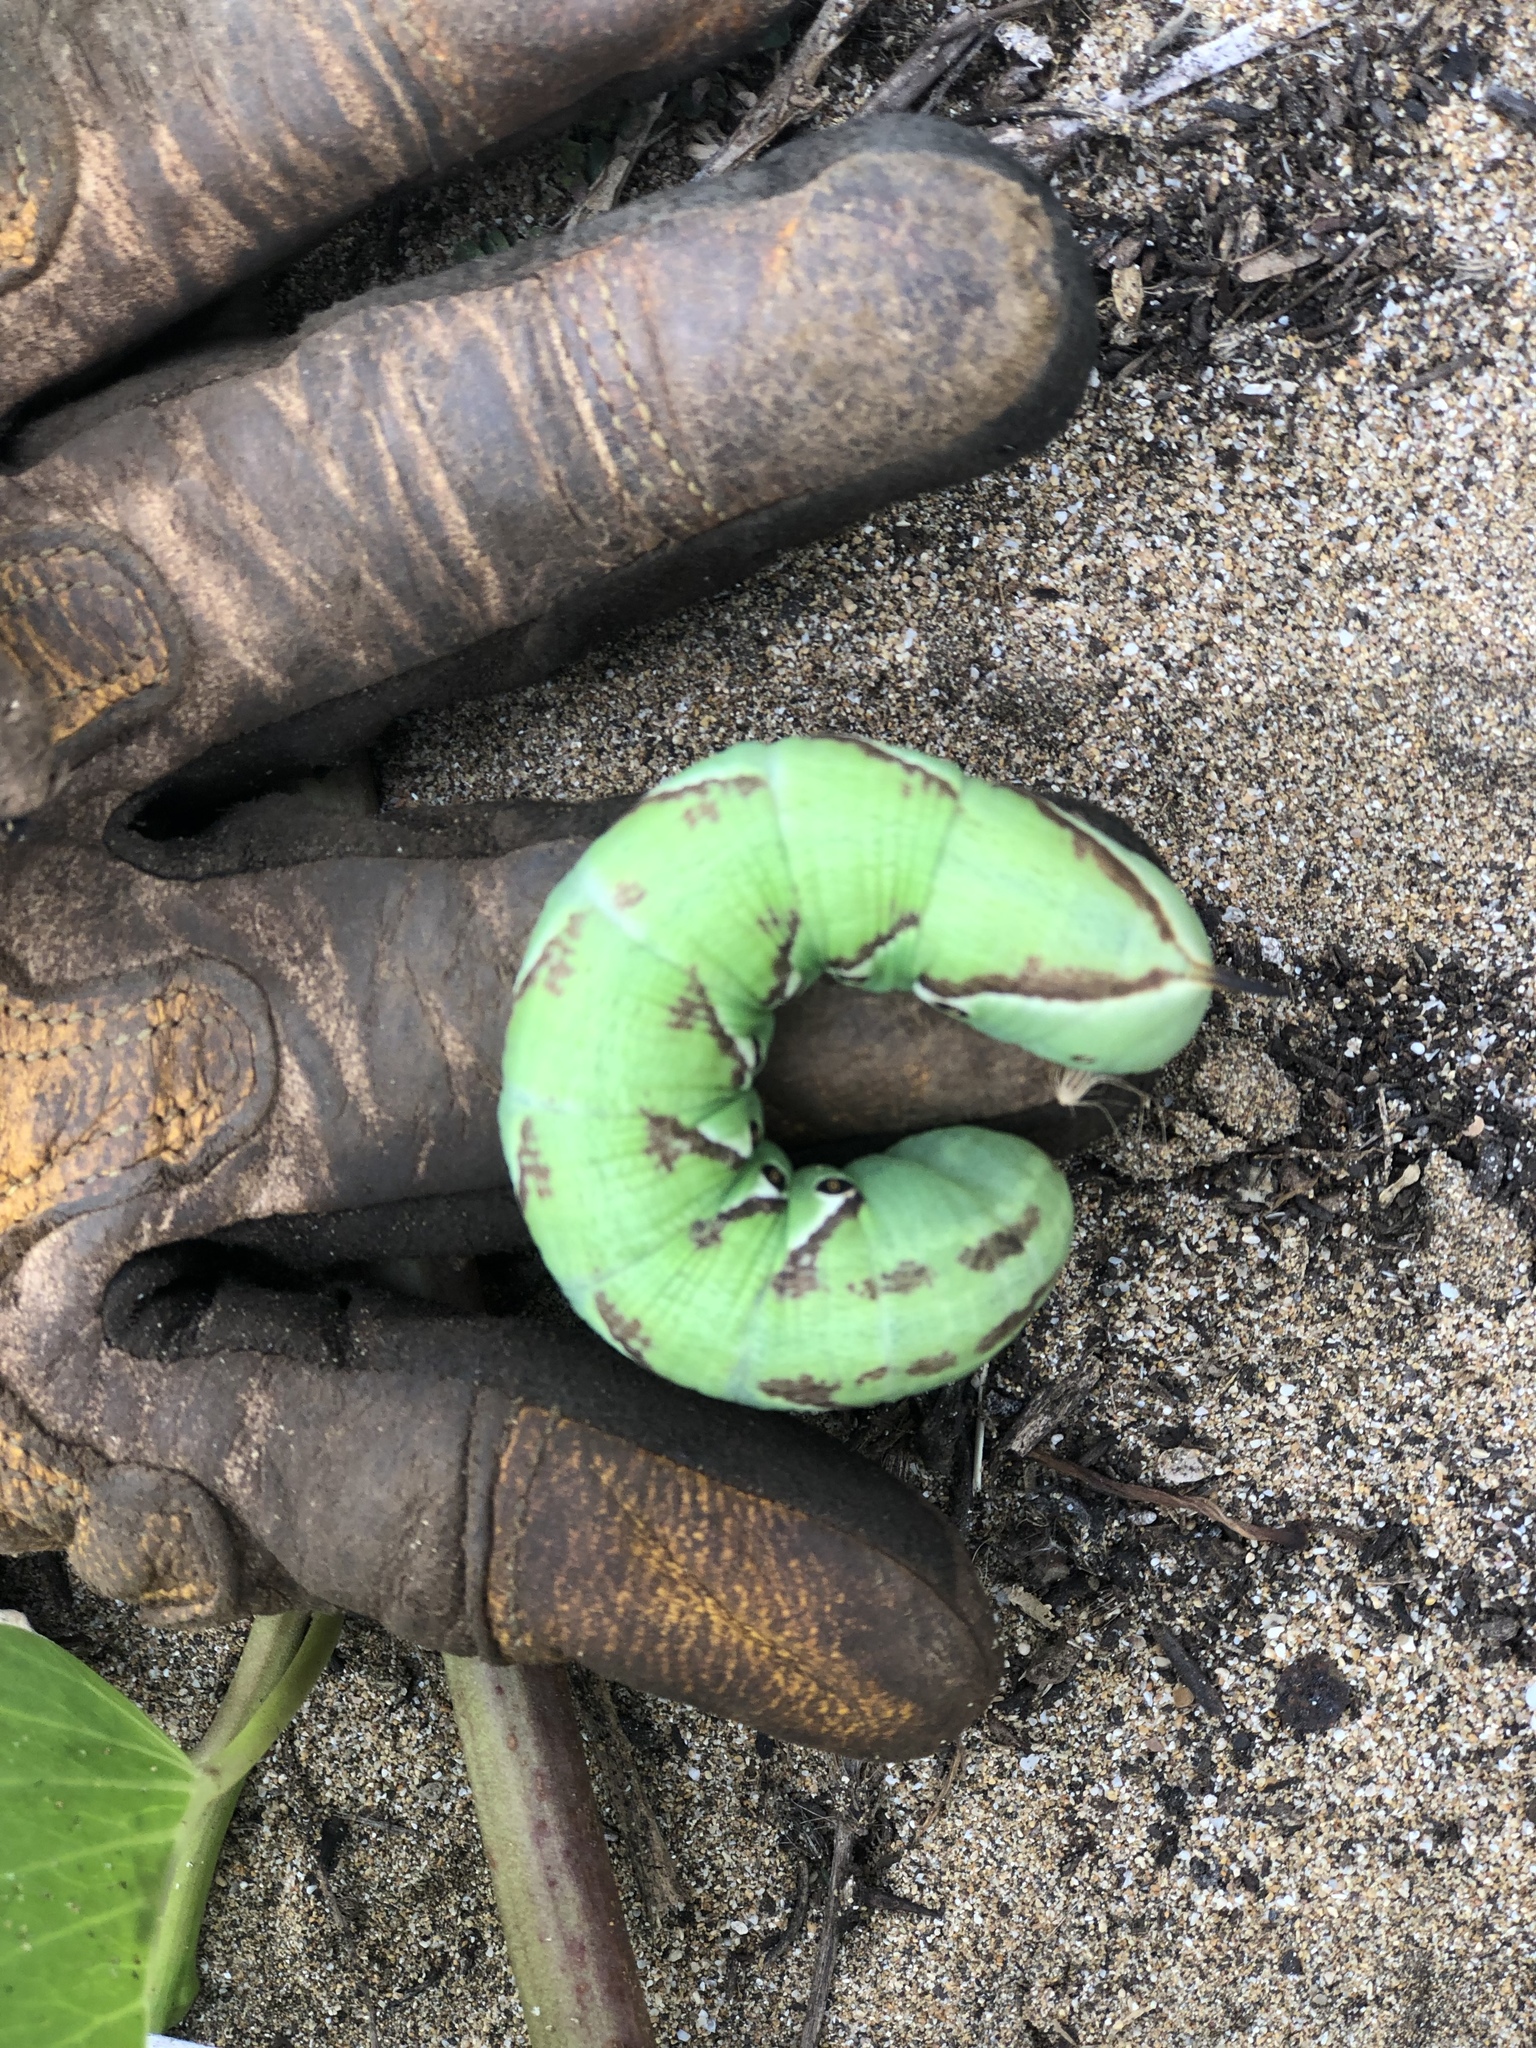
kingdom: Animalia
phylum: Arthropoda
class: Insecta
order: Lepidoptera
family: Sphingidae
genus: Agrius
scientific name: Agrius cingulata
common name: Pink-spotted hawkmoth
